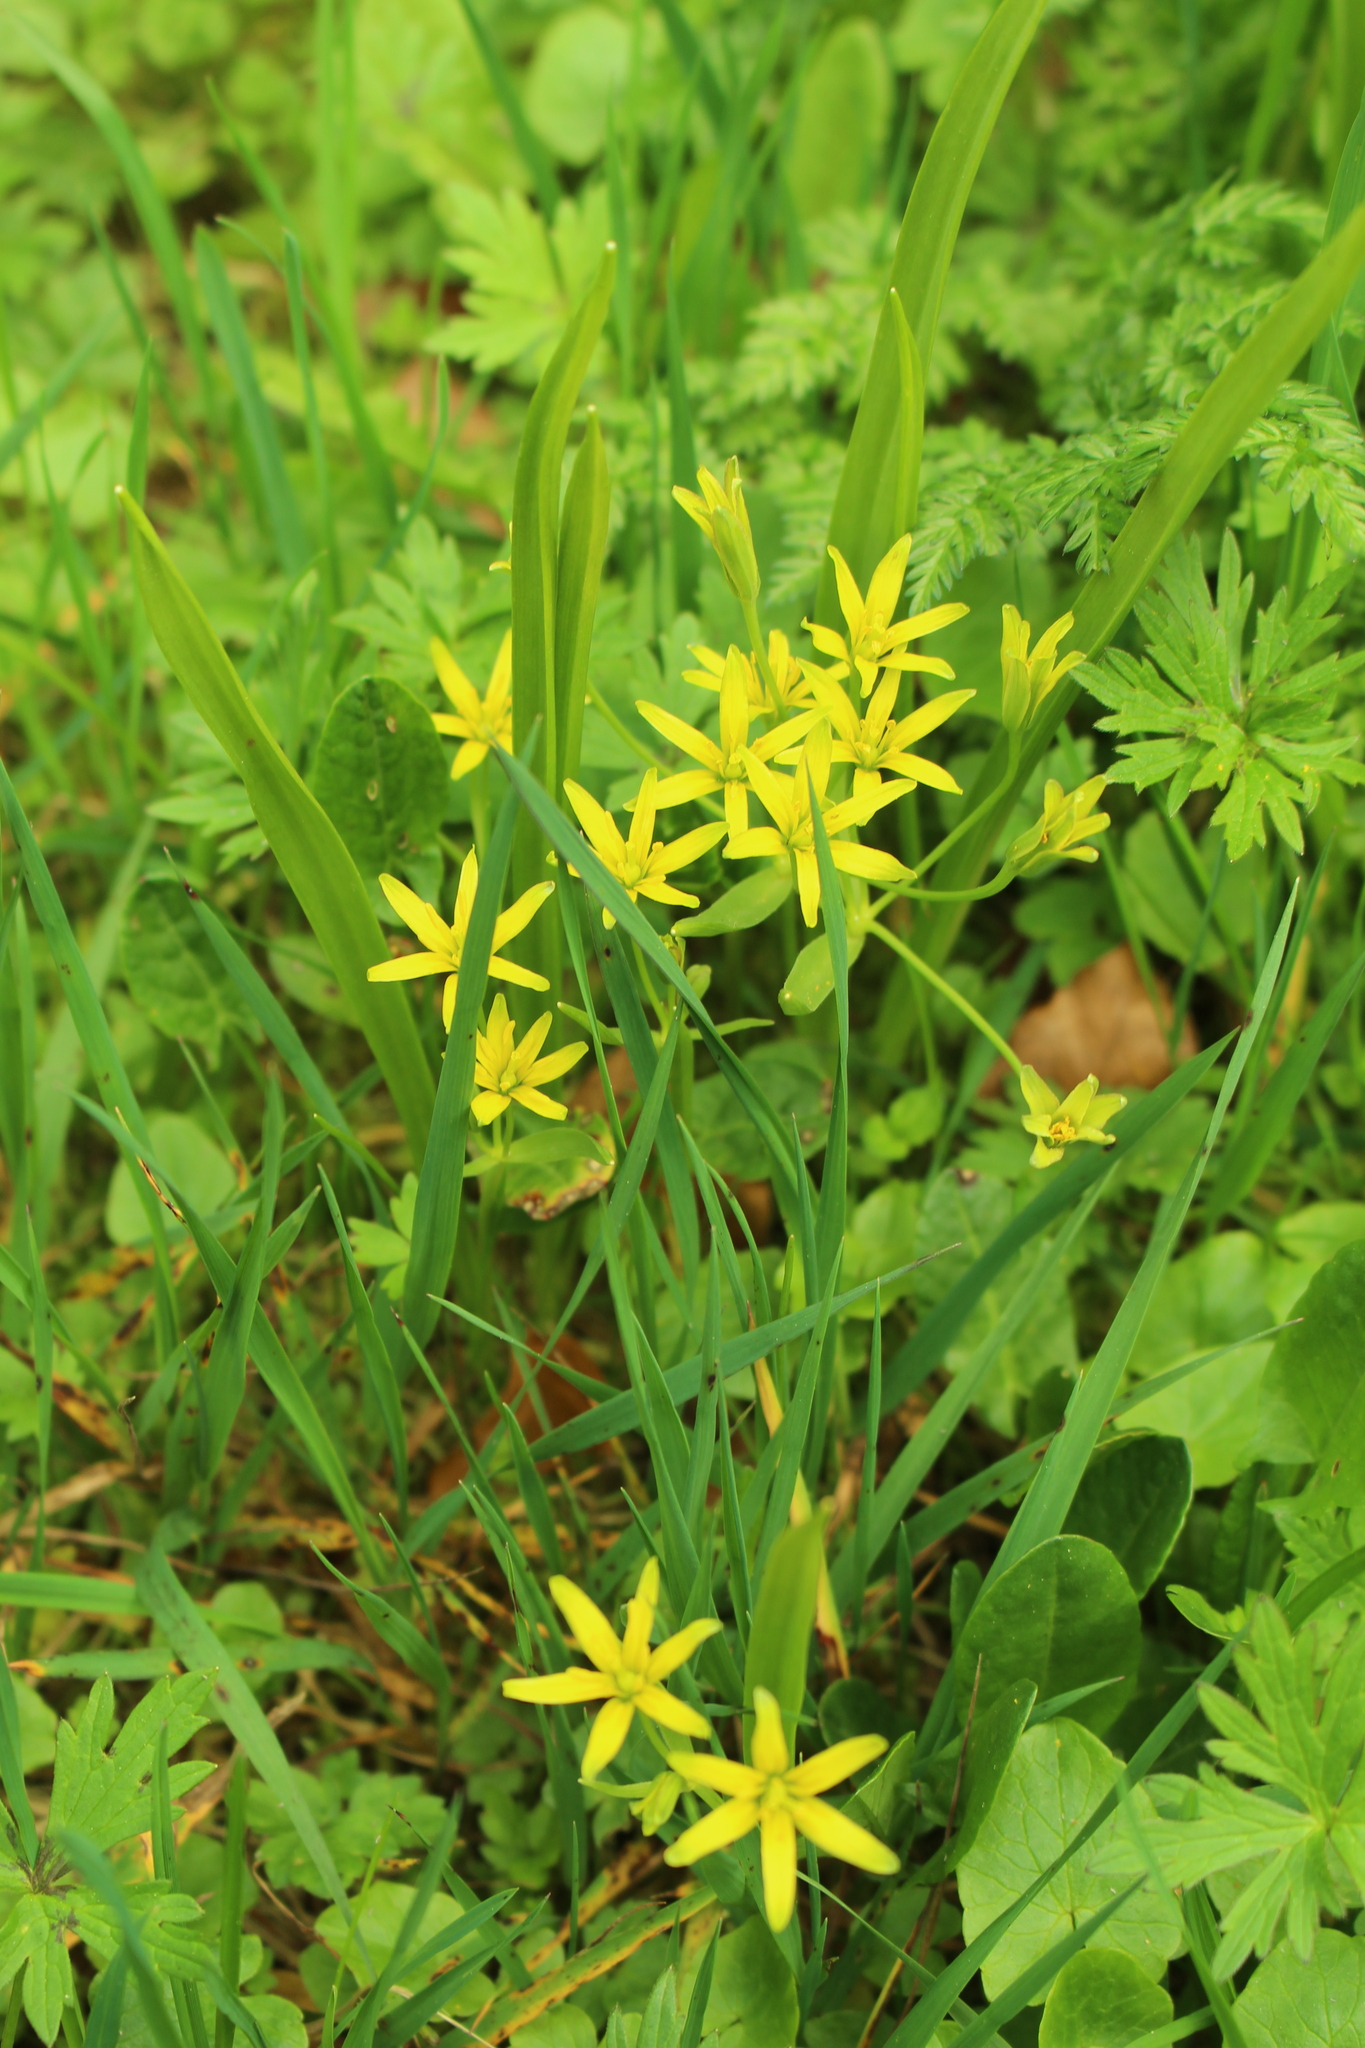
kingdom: Plantae
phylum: Tracheophyta
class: Liliopsida
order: Liliales
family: Liliaceae
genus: Gagea
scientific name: Gagea lutea
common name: Yellow star-of-bethlehem
